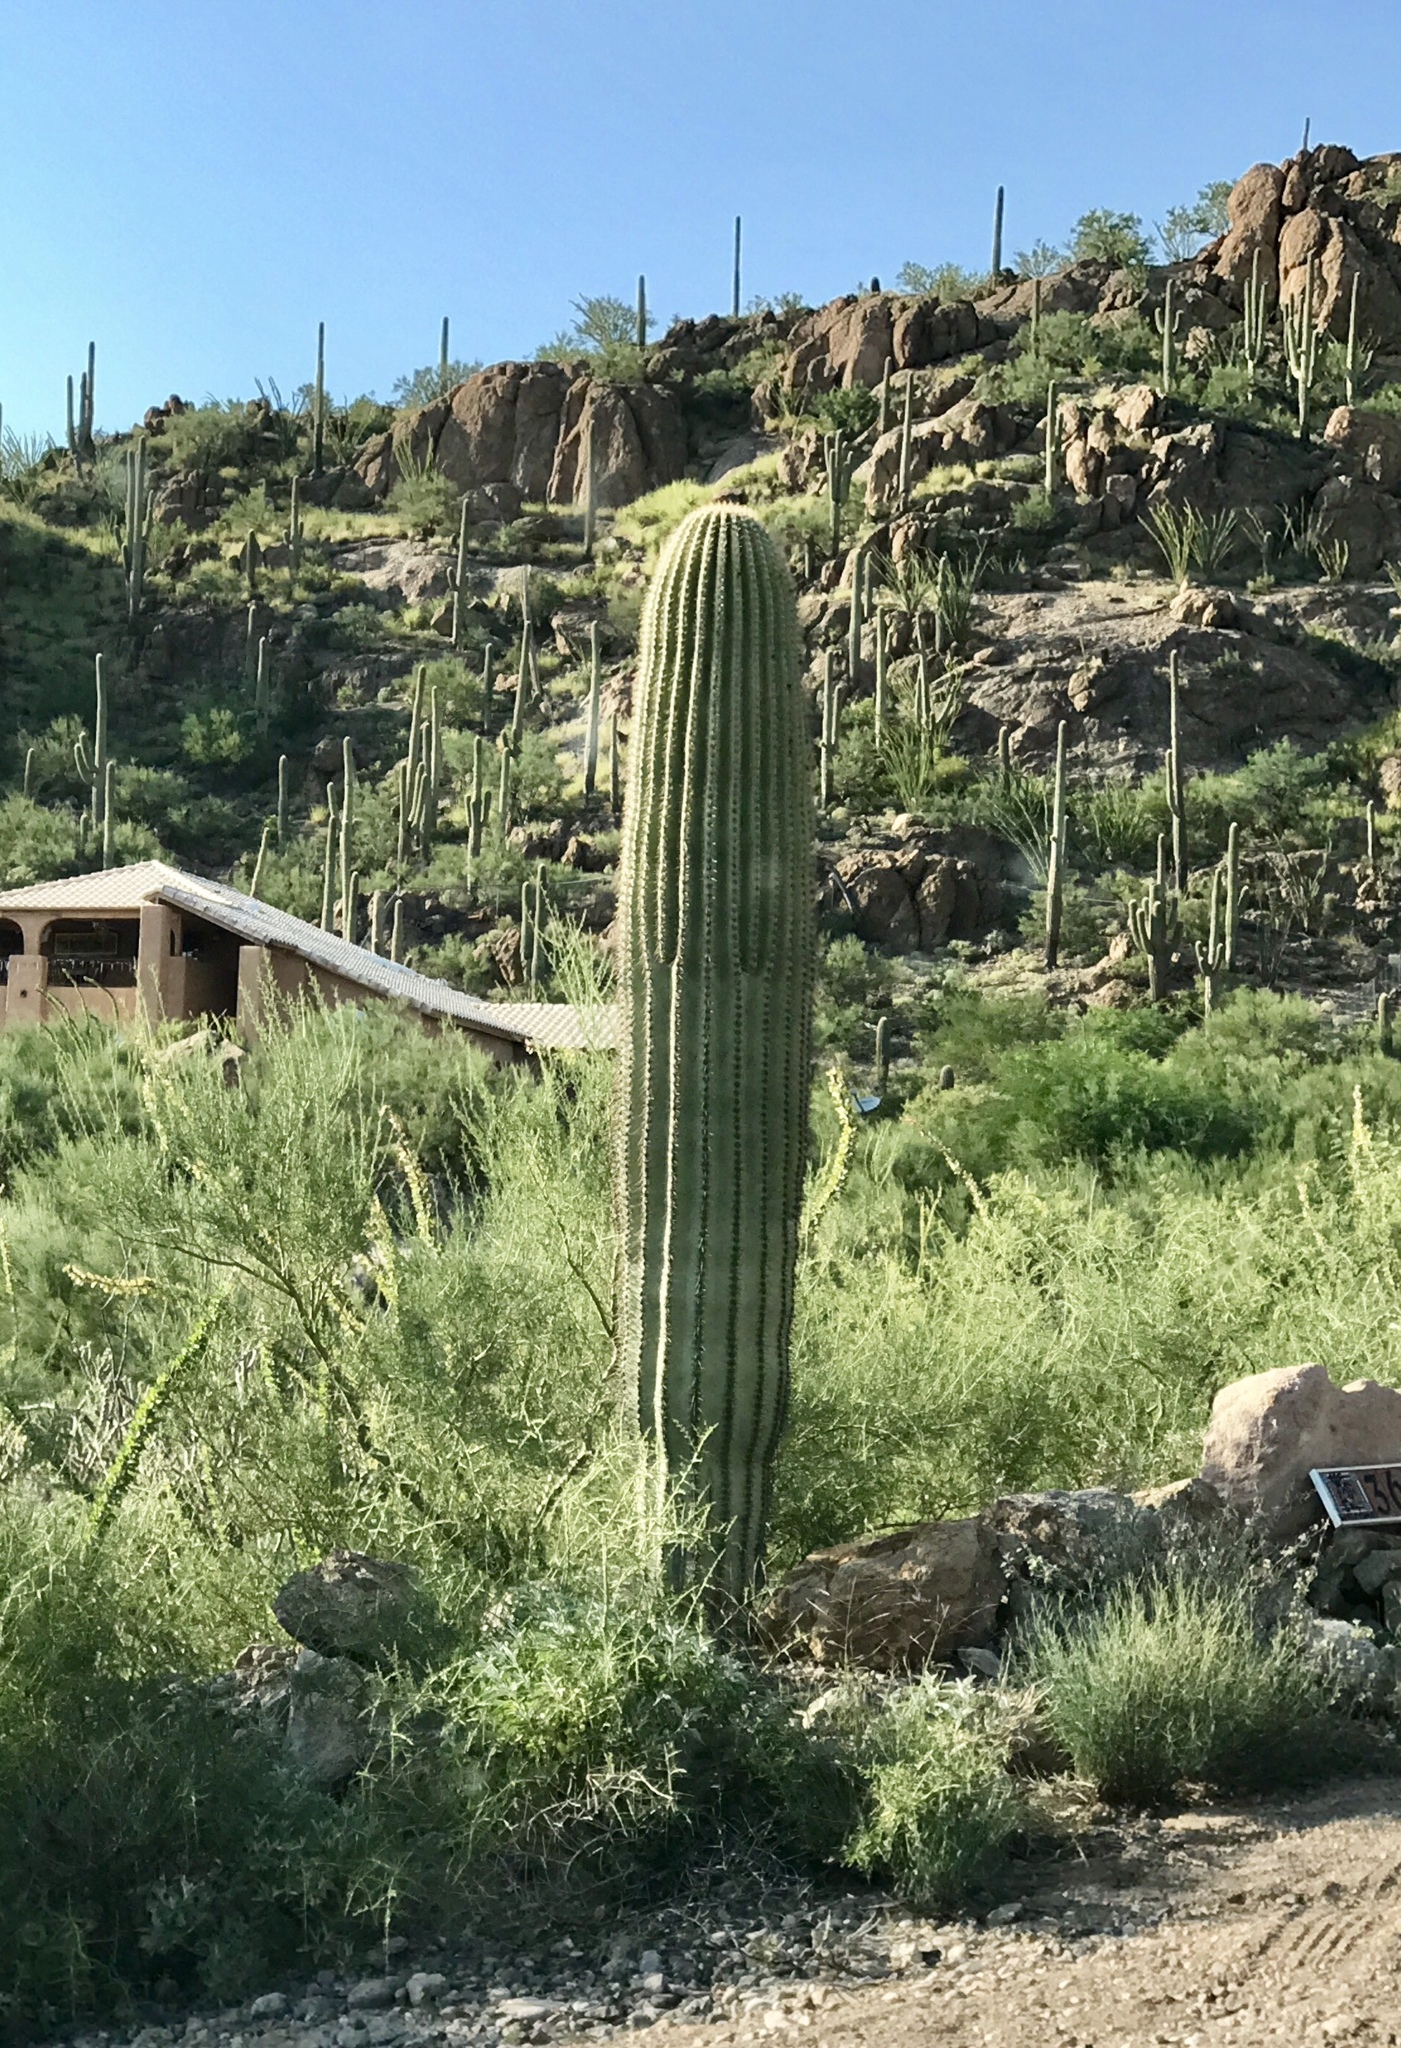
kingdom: Plantae
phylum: Tracheophyta
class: Magnoliopsida
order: Caryophyllales
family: Cactaceae
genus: Carnegiea
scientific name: Carnegiea gigantea
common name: Saguaro
